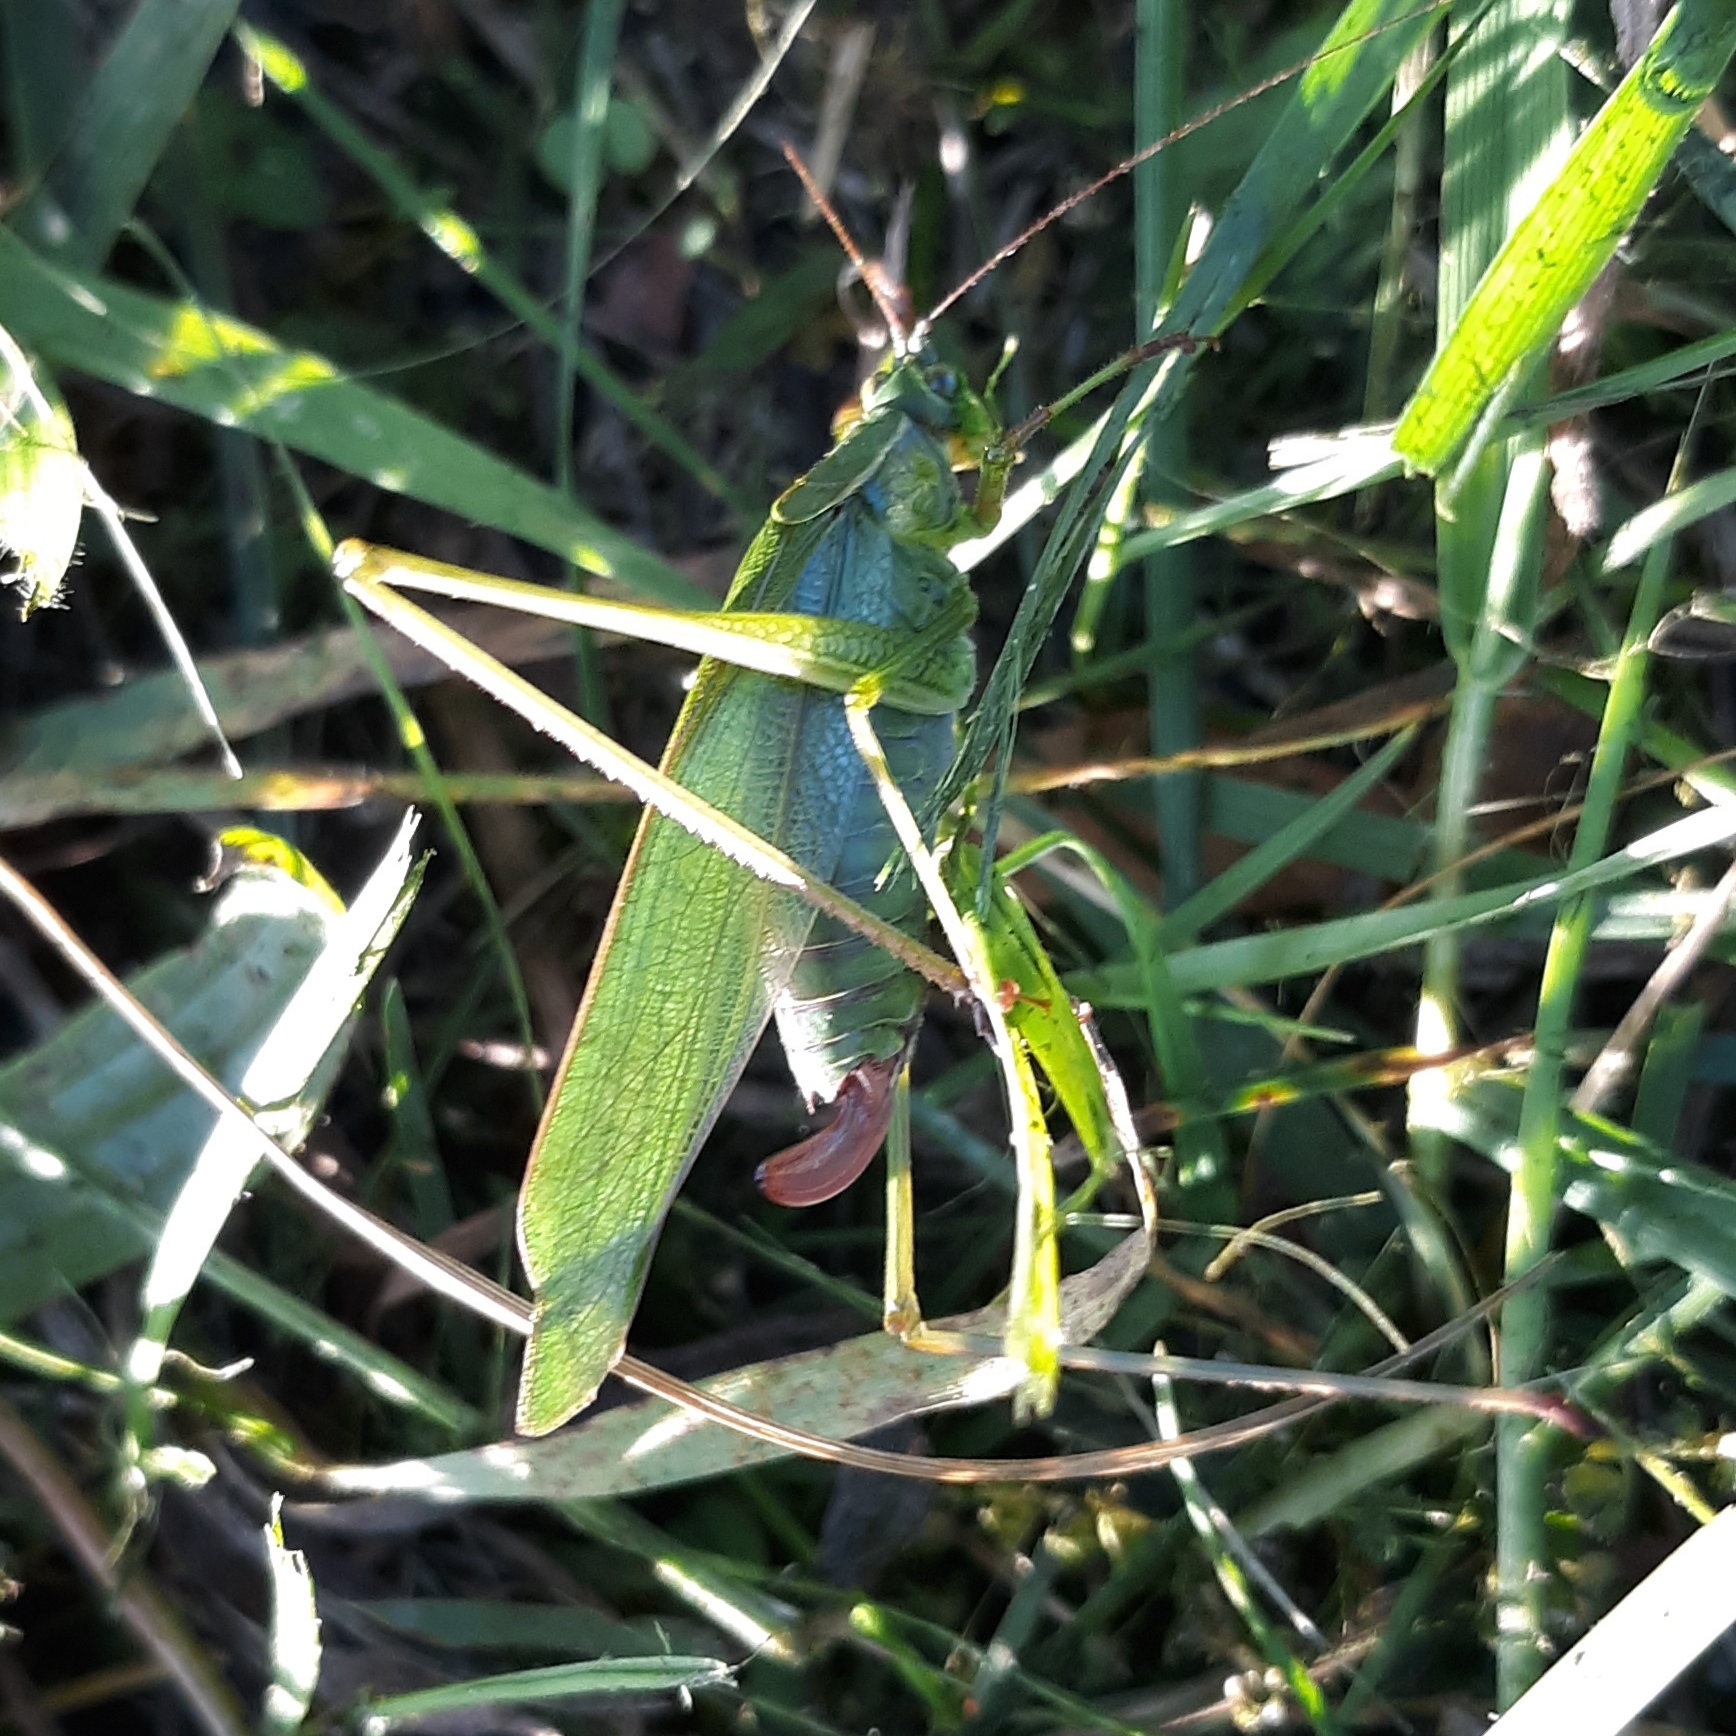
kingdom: Animalia
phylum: Arthropoda
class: Insecta
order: Orthoptera
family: Tettigoniidae
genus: Scudderia
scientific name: Scudderia furcata
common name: Fork-tailed bush katydid
